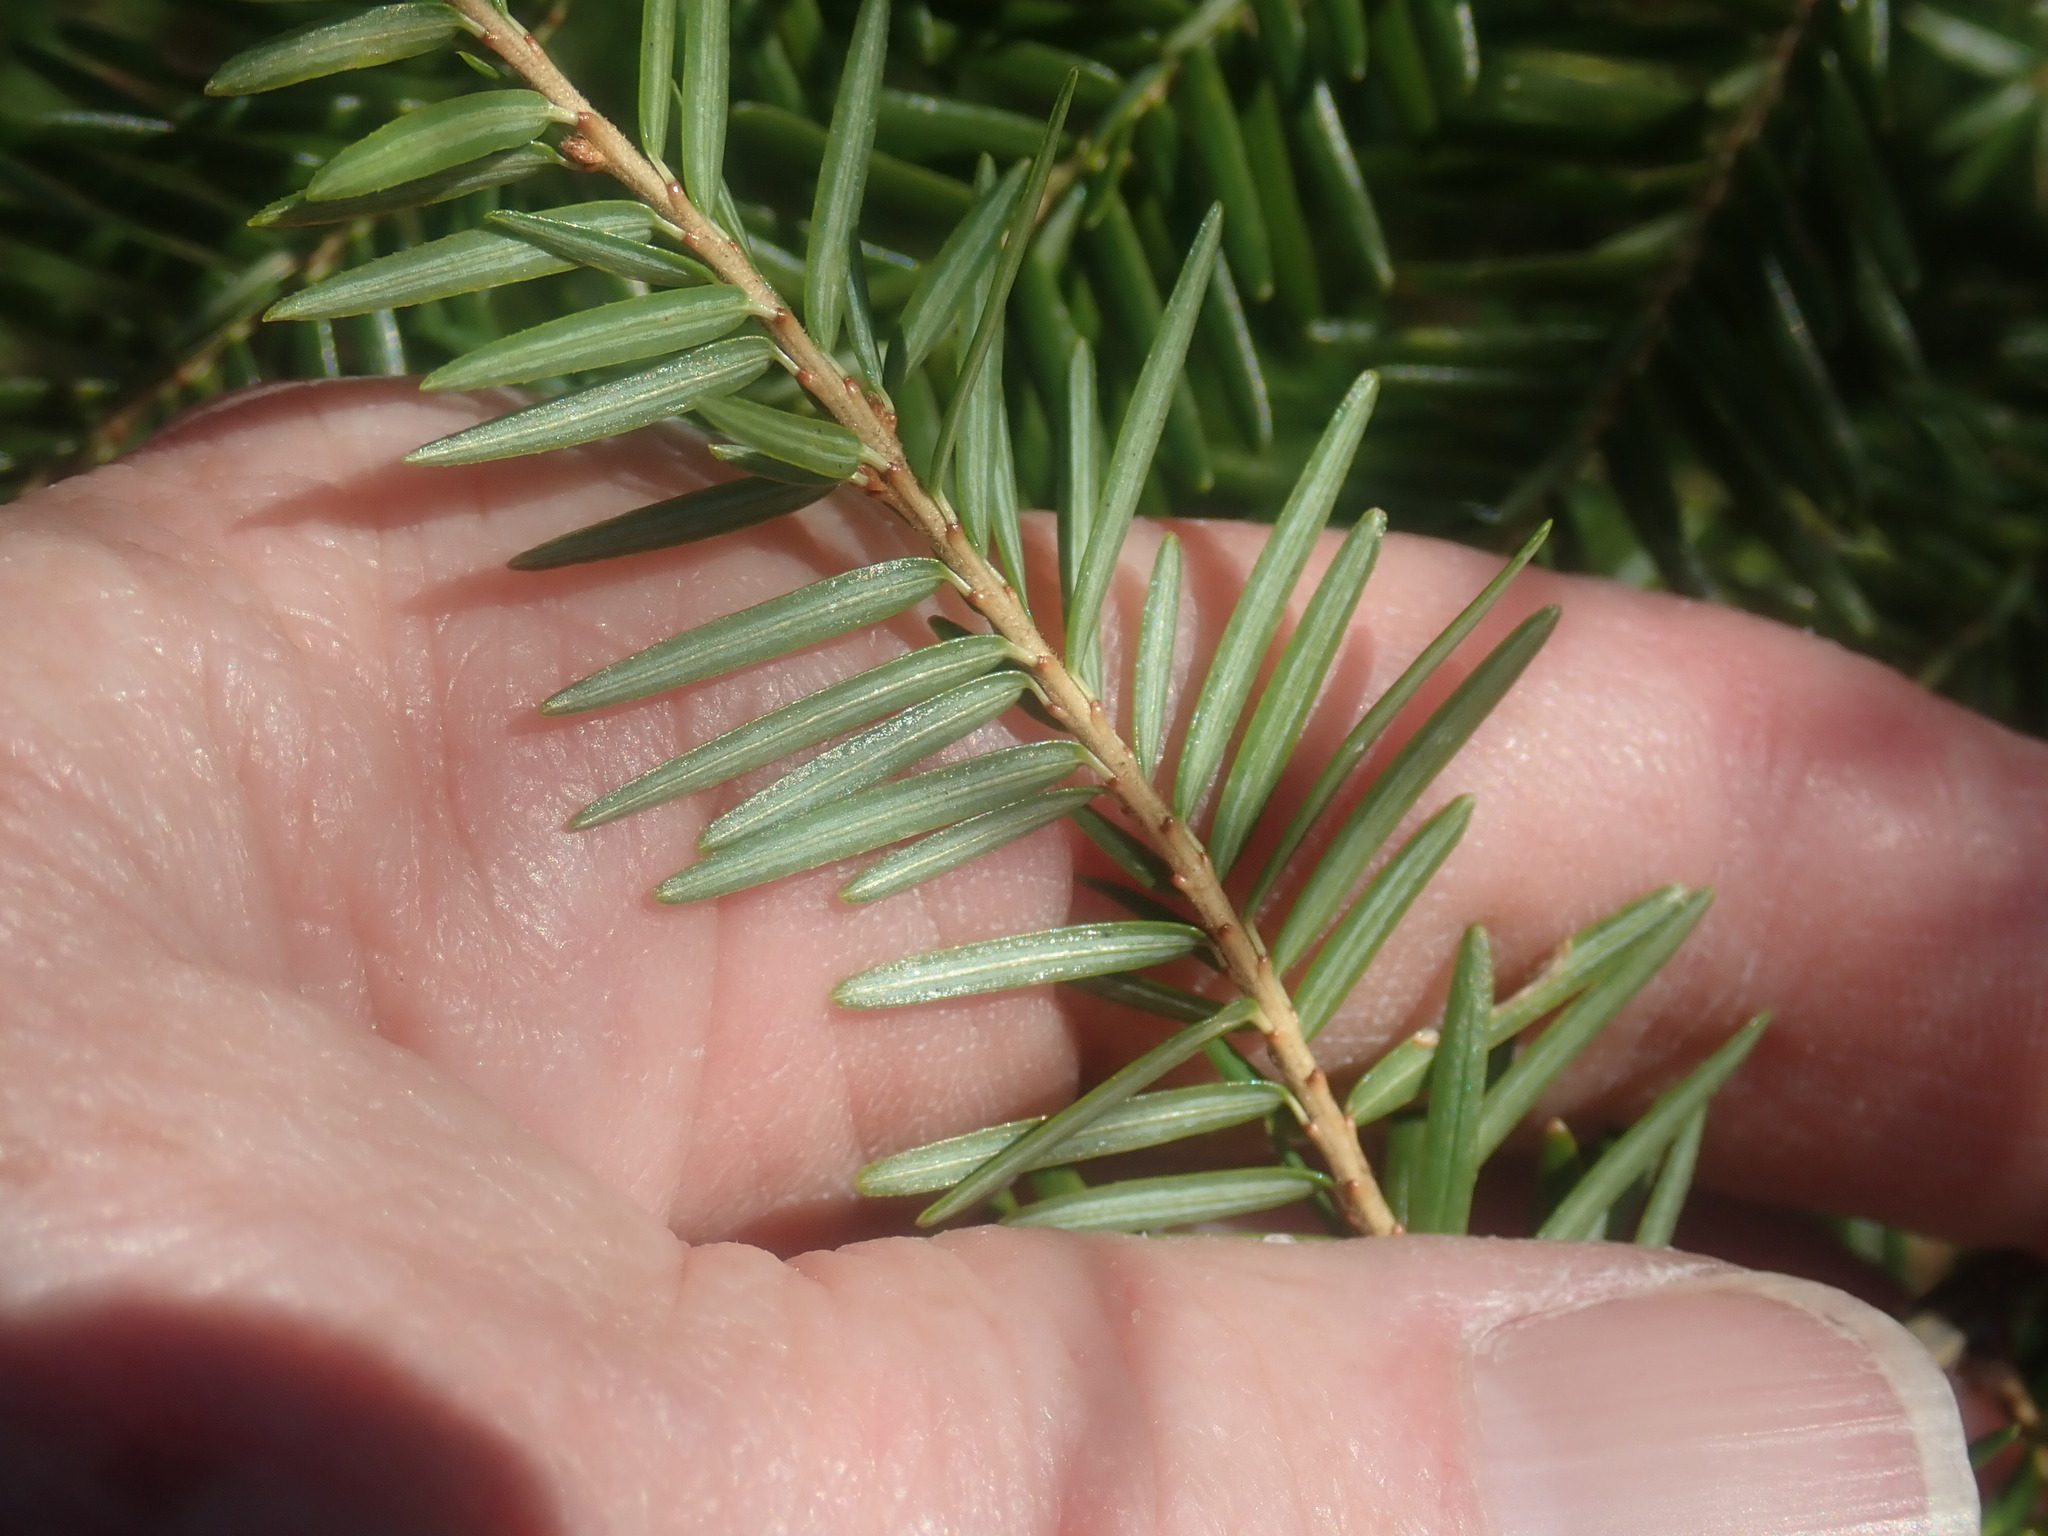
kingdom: Plantae
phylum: Tracheophyta
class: Pinopsida
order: Pinales
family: Pinaceae
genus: Tsuga
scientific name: Tsuga canadensis
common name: Eastern hemlock
